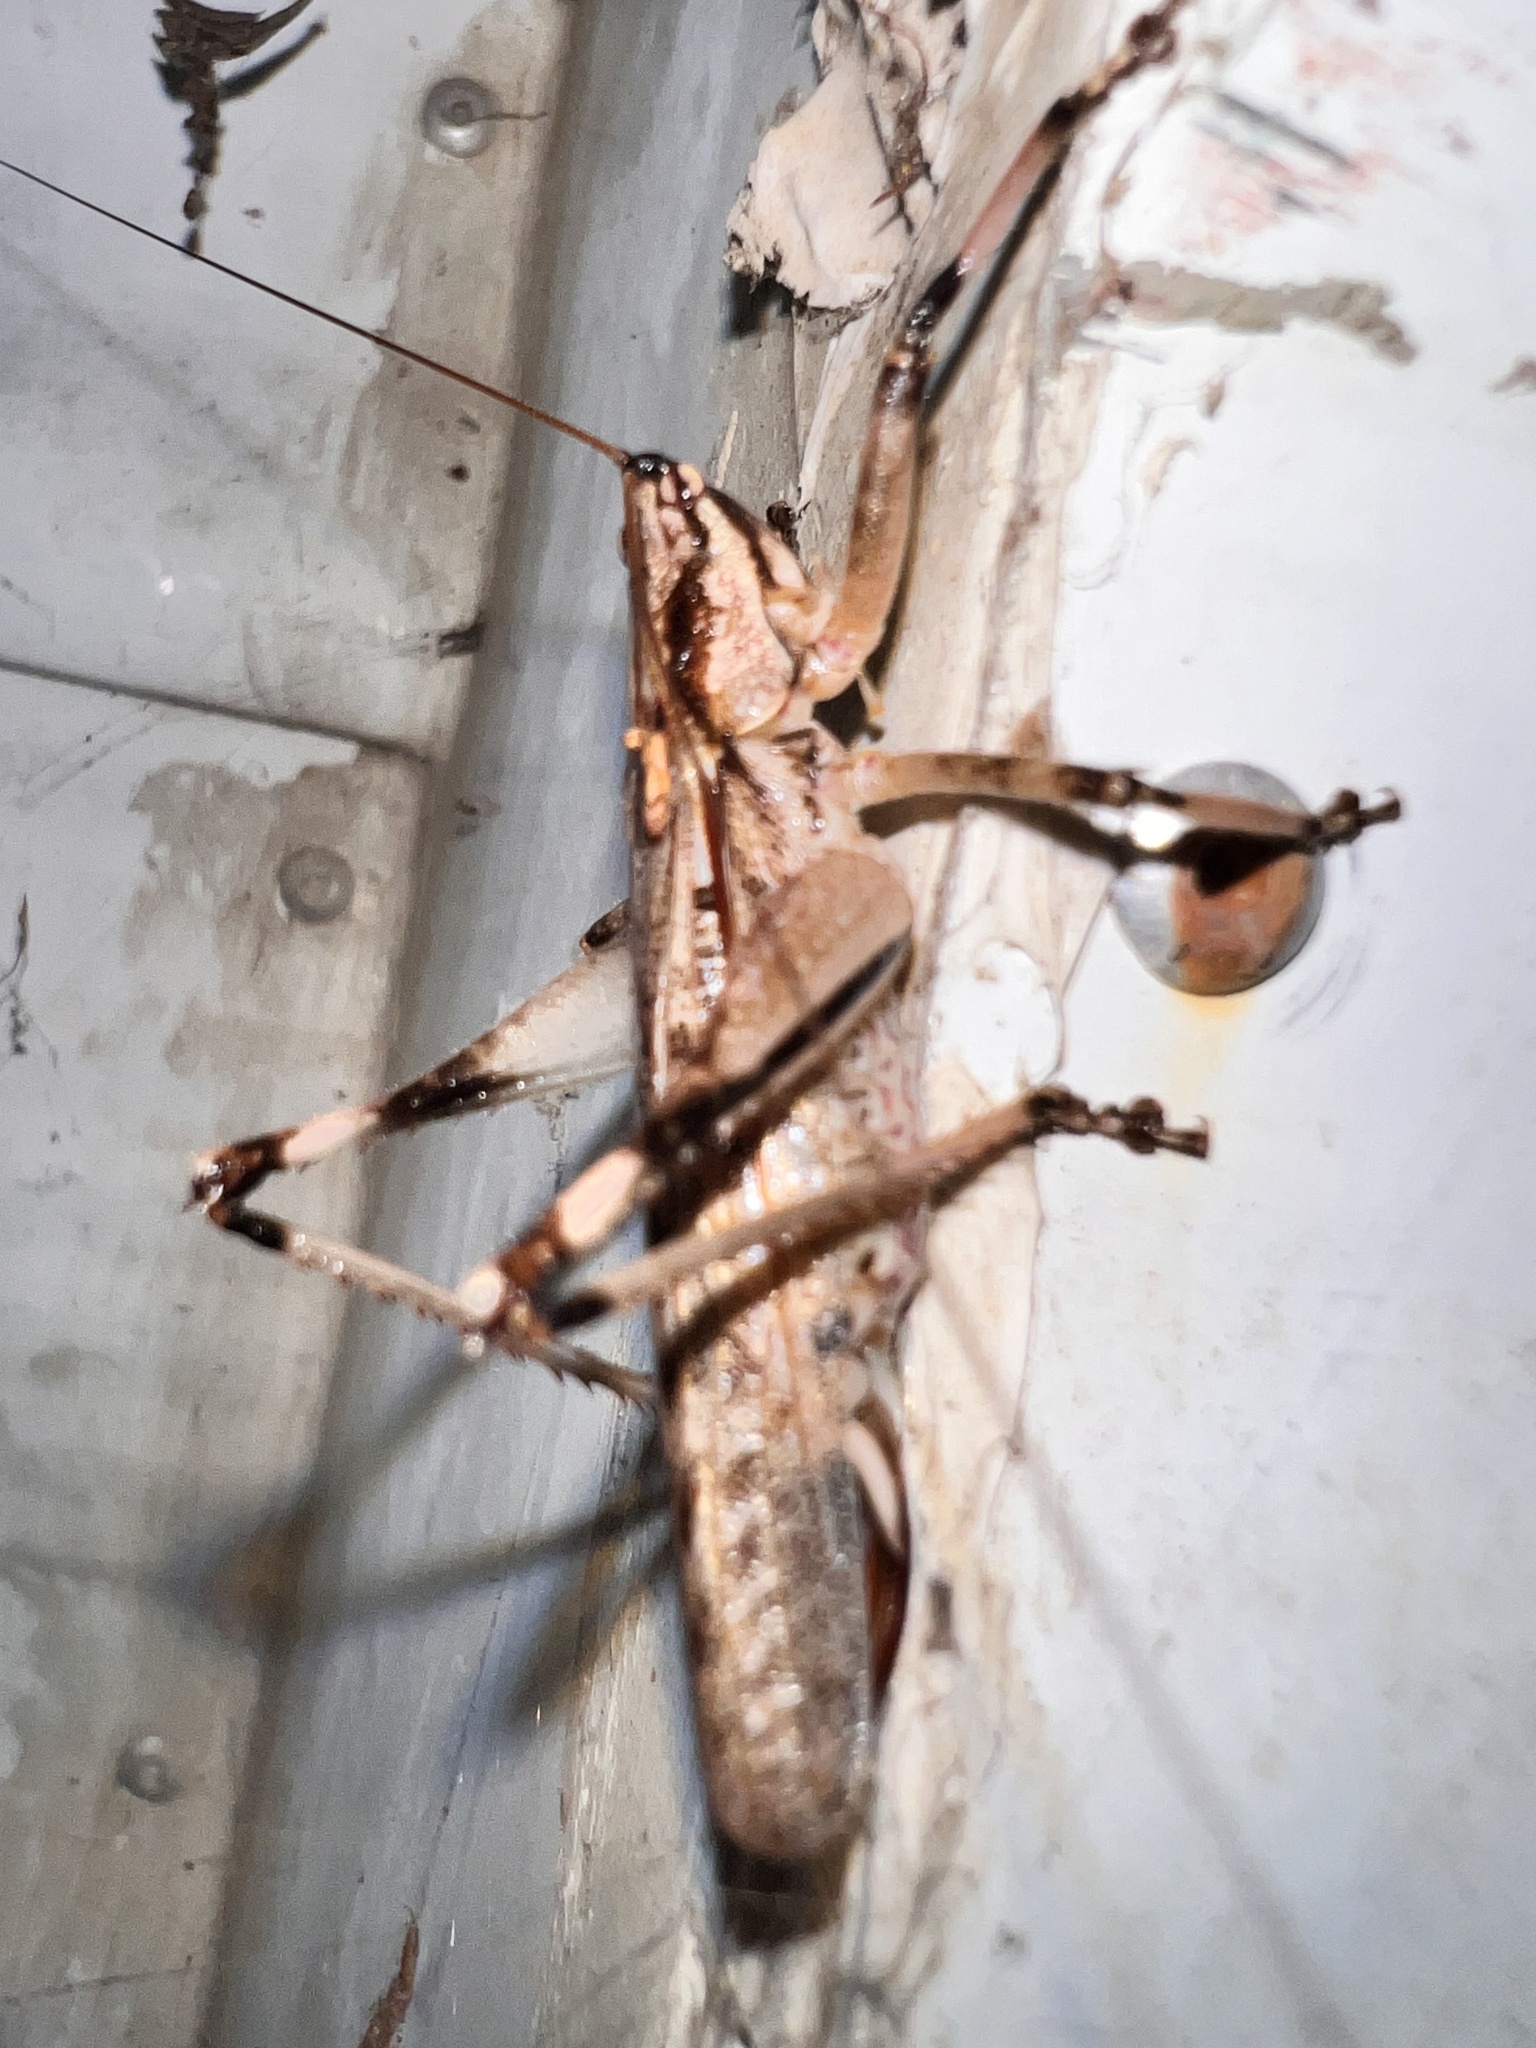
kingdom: Animalia
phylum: Arthropoda
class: Insecta
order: Orthoptera
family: Tettigoniidae
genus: Larifugagraecia
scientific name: Larifugagraecia cornuta
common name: Spine-headed nicsara
